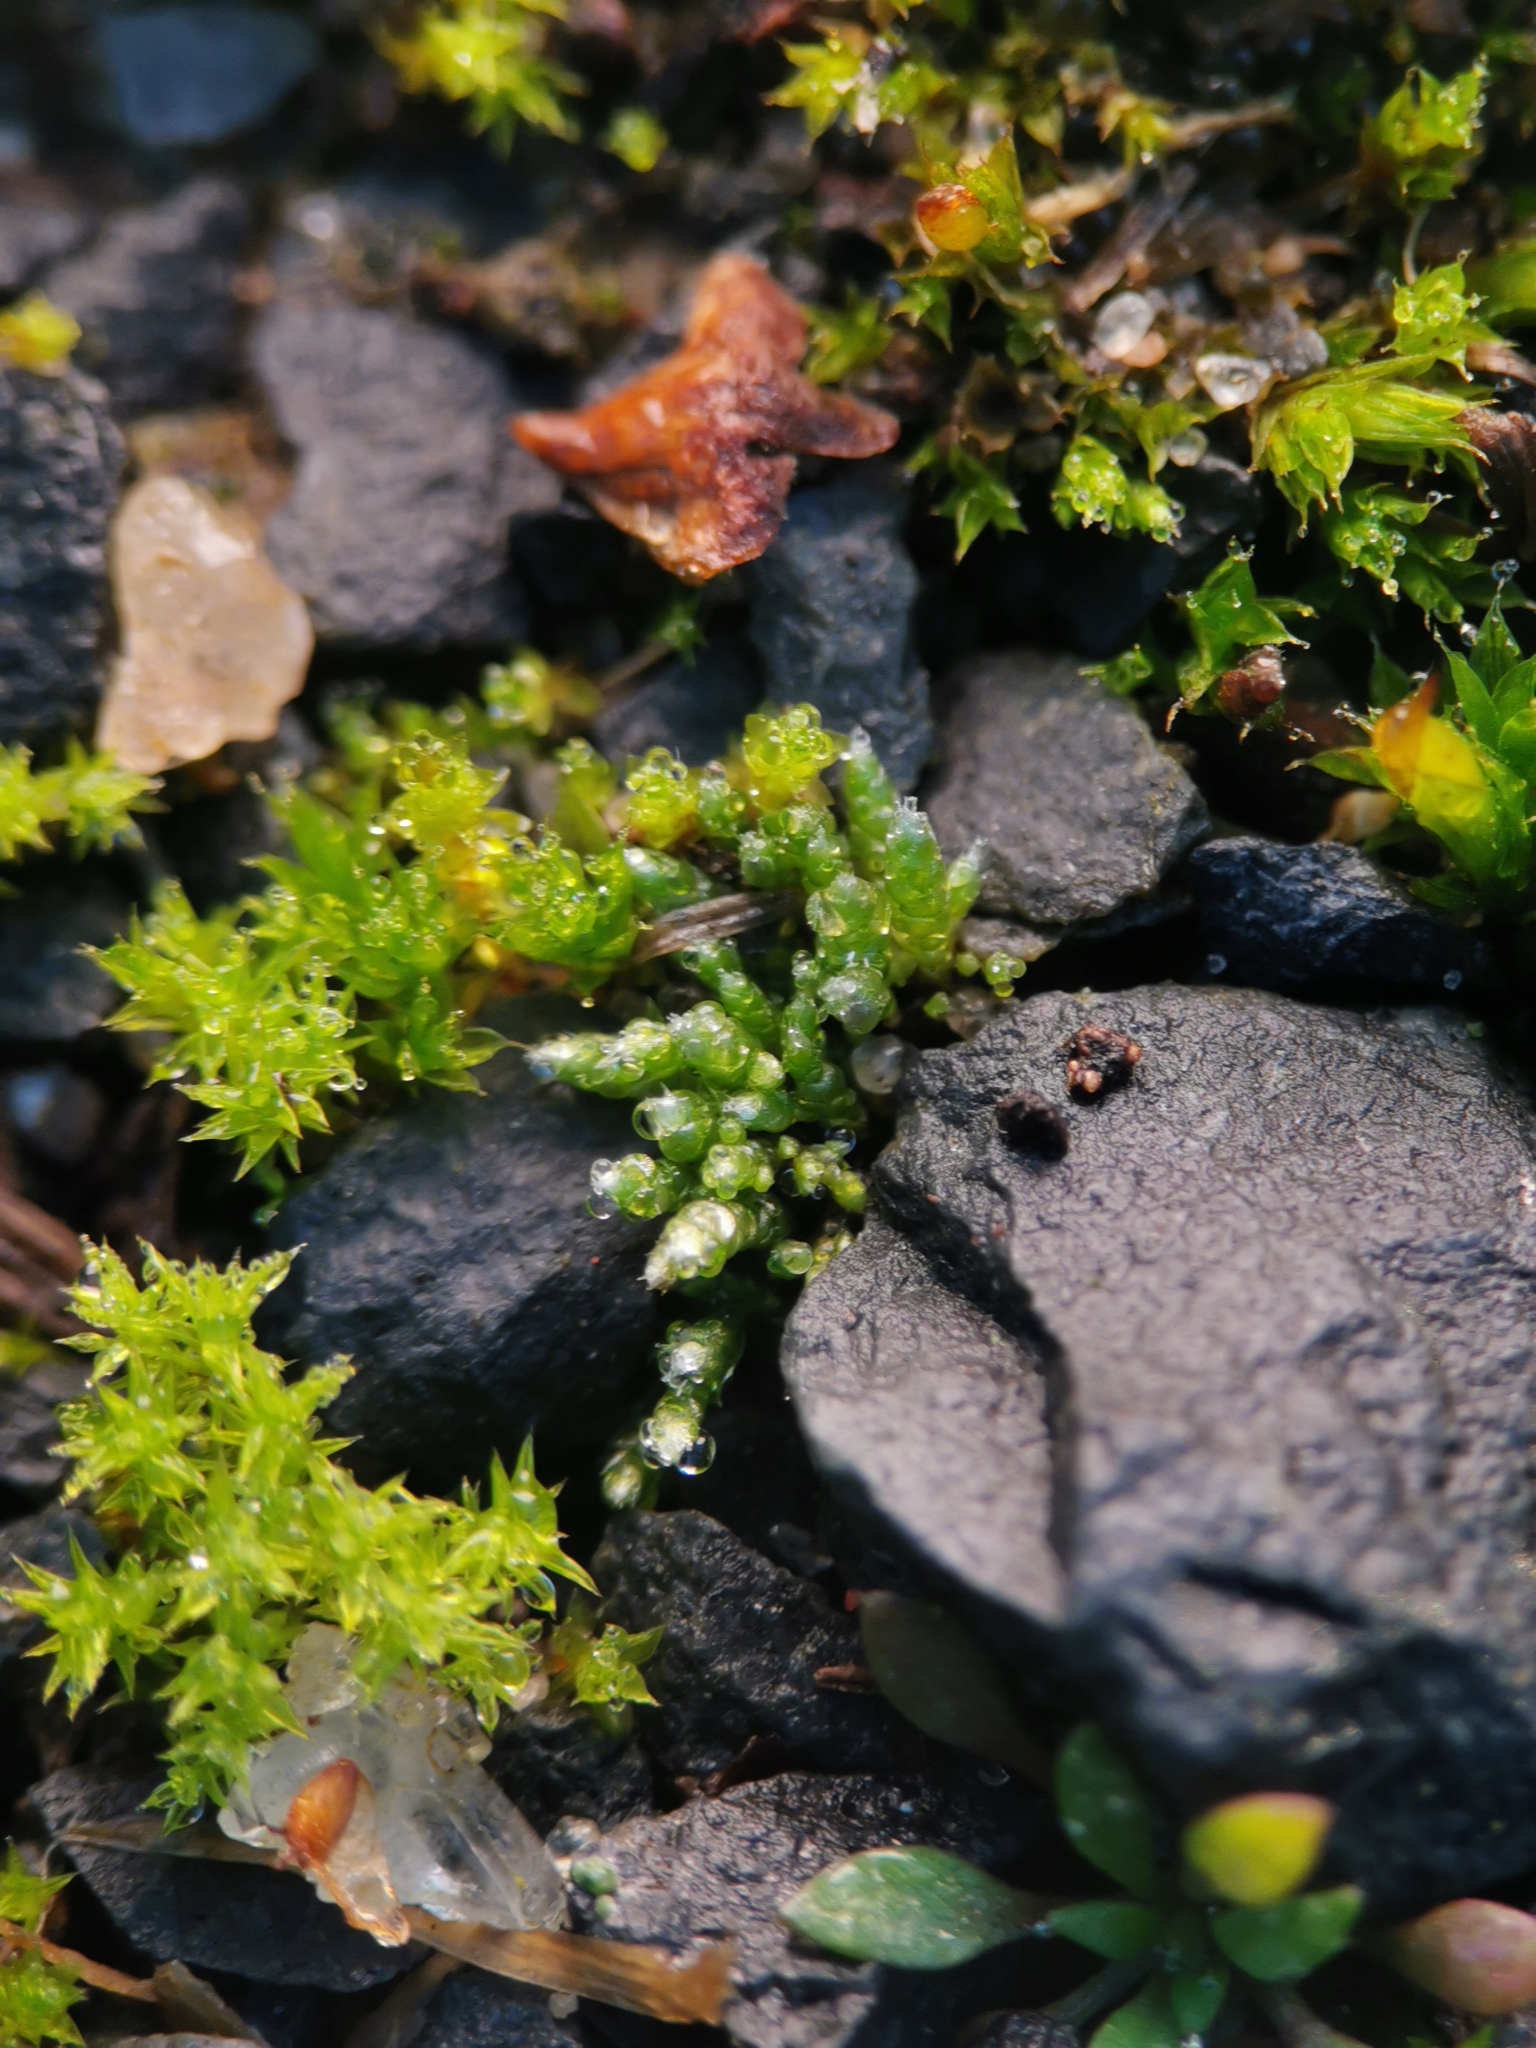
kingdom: Plantae
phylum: Bryophyta
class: Bryopsida
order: Bryales
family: Bryaceae
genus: Bryum
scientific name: Bryum argenteum
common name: Silver-moss
